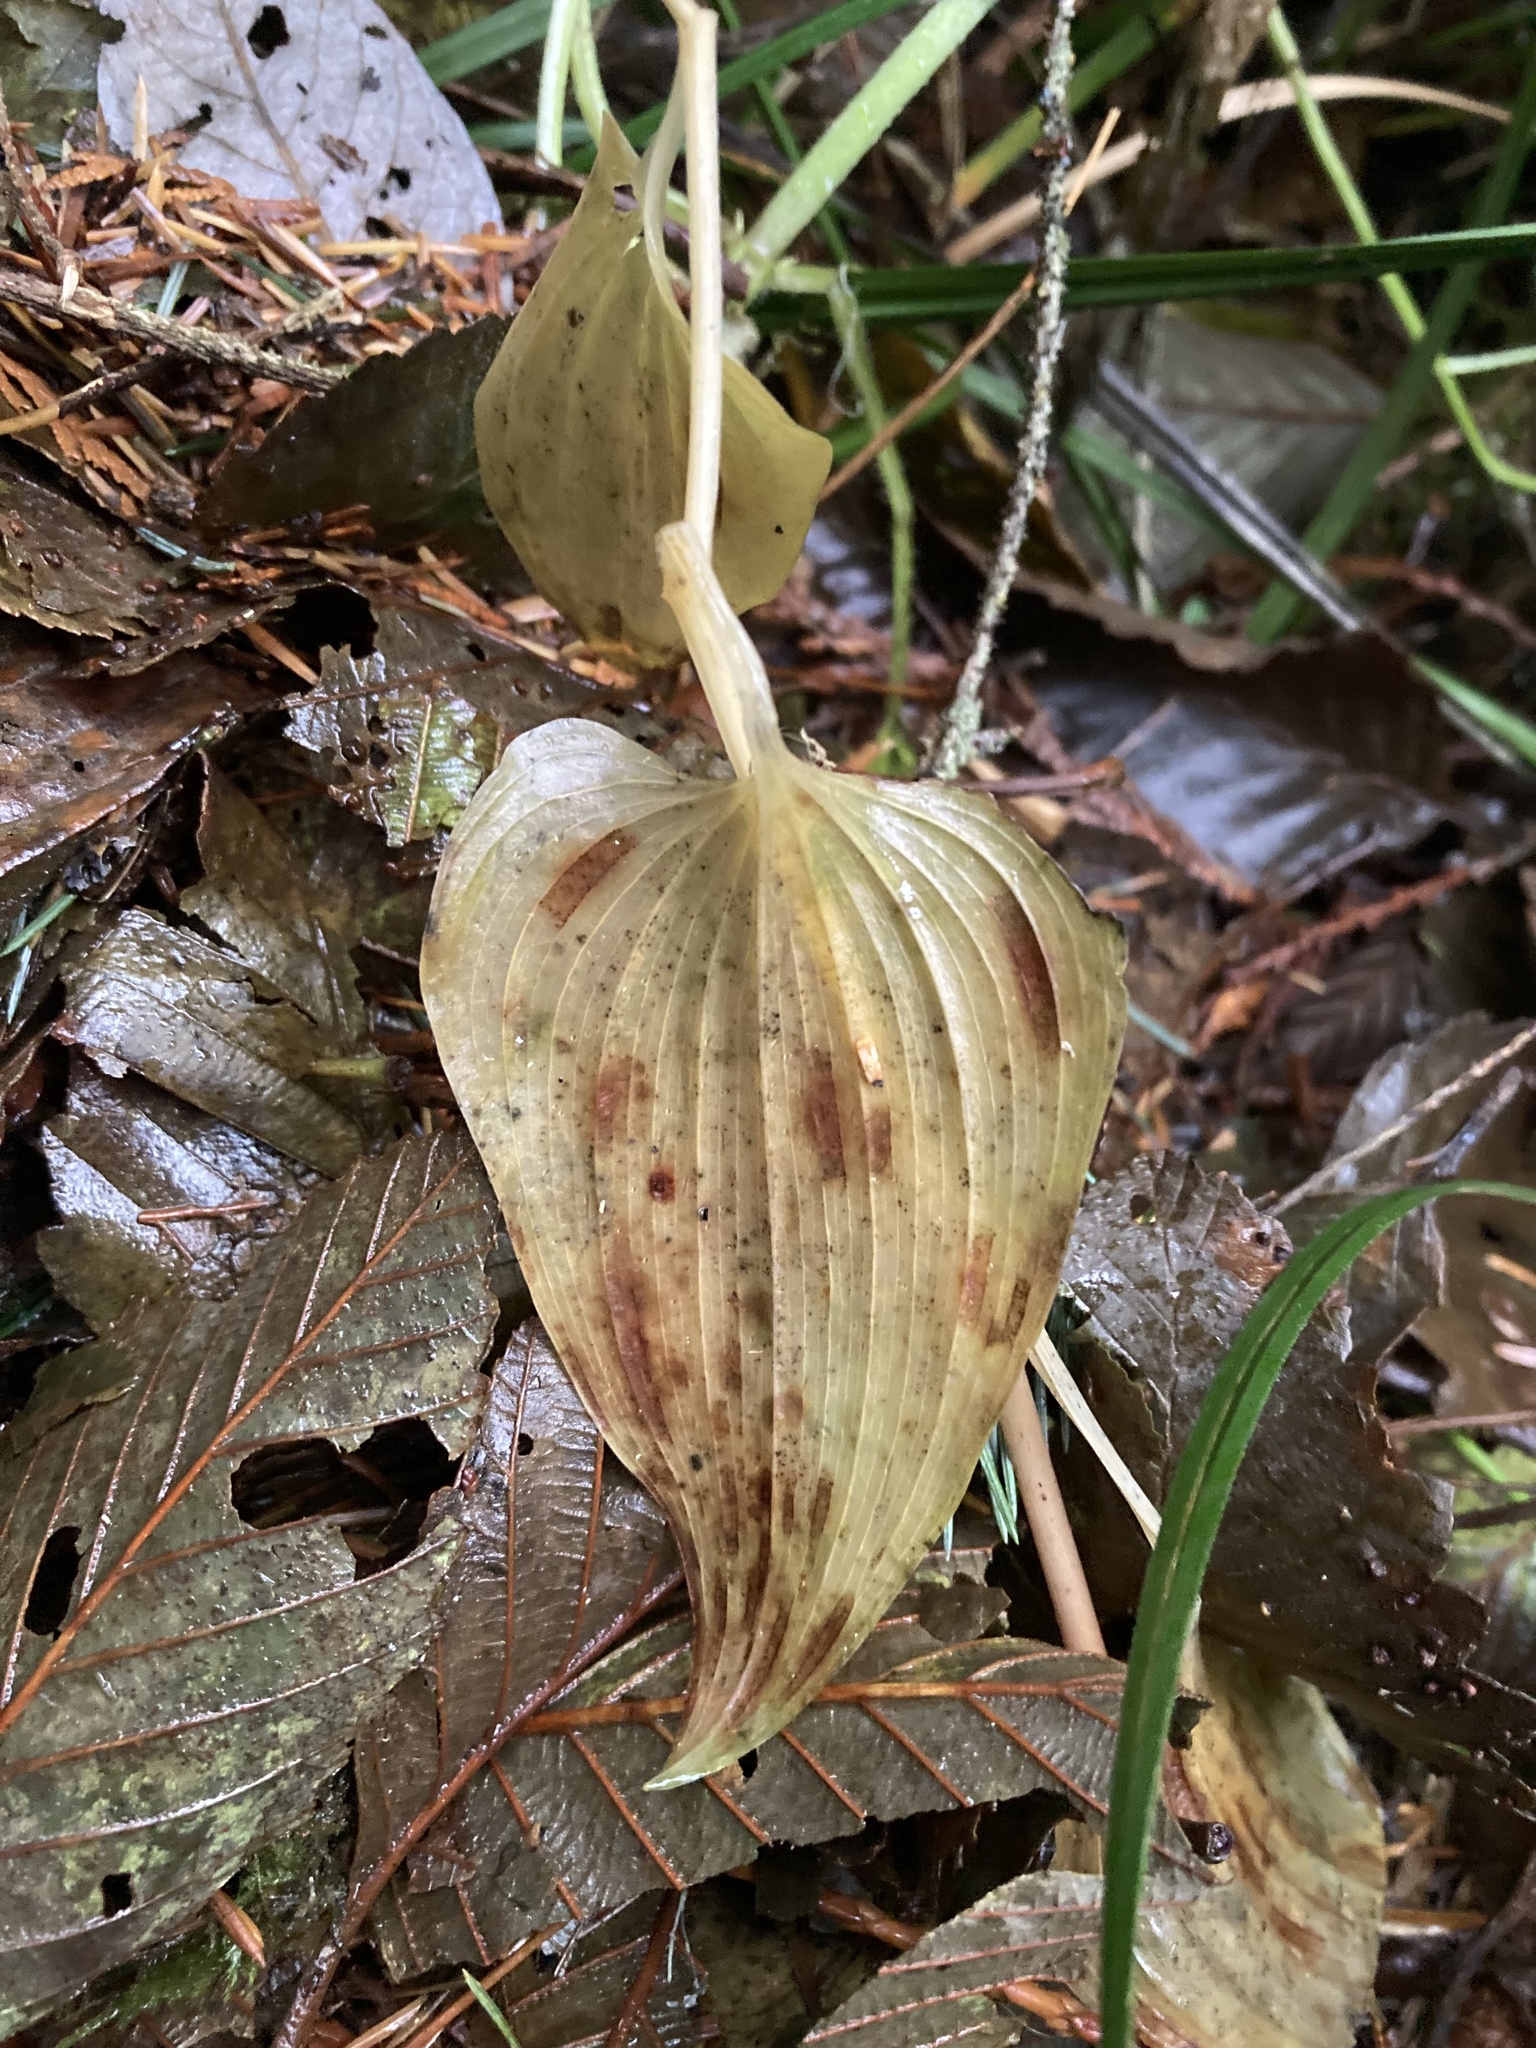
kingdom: Plantae
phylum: Tracheophyta
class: Liliopsida
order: Asparagales
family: Asparagaceae
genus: Maianthemum
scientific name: Maianthemum dilatatum
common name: False lily-of-the-valley
